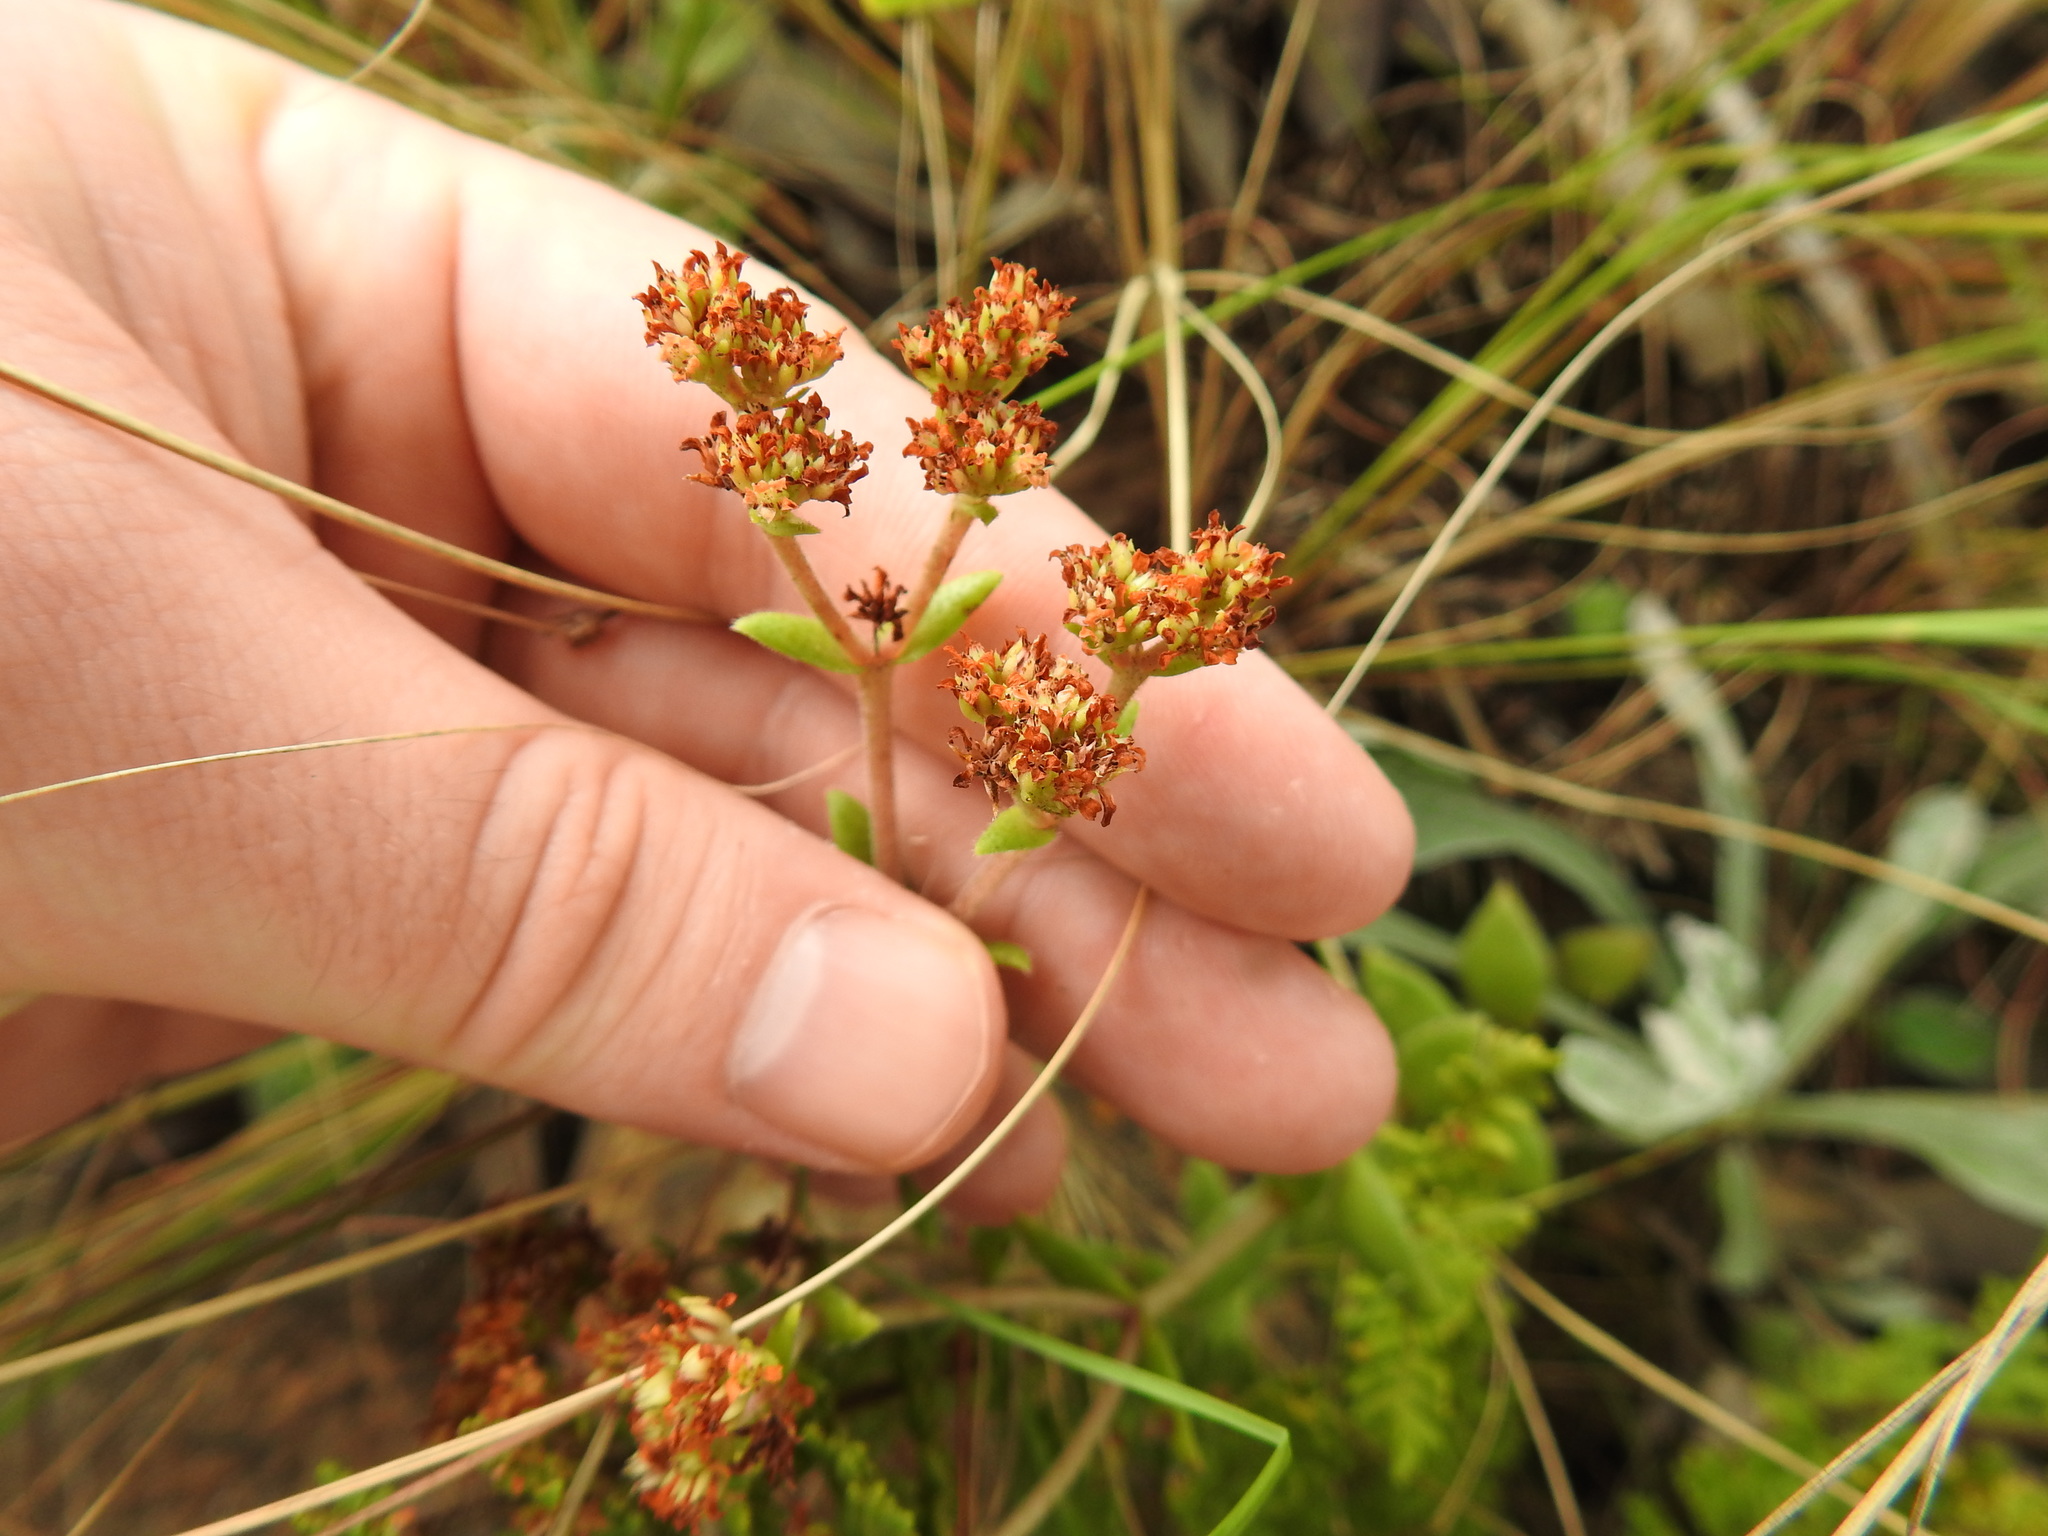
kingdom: Plantae
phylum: Tracheophyta
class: Magnoliopsida
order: Saxifragales
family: Crassulaceae
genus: Crassula
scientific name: Crassula setulosa
